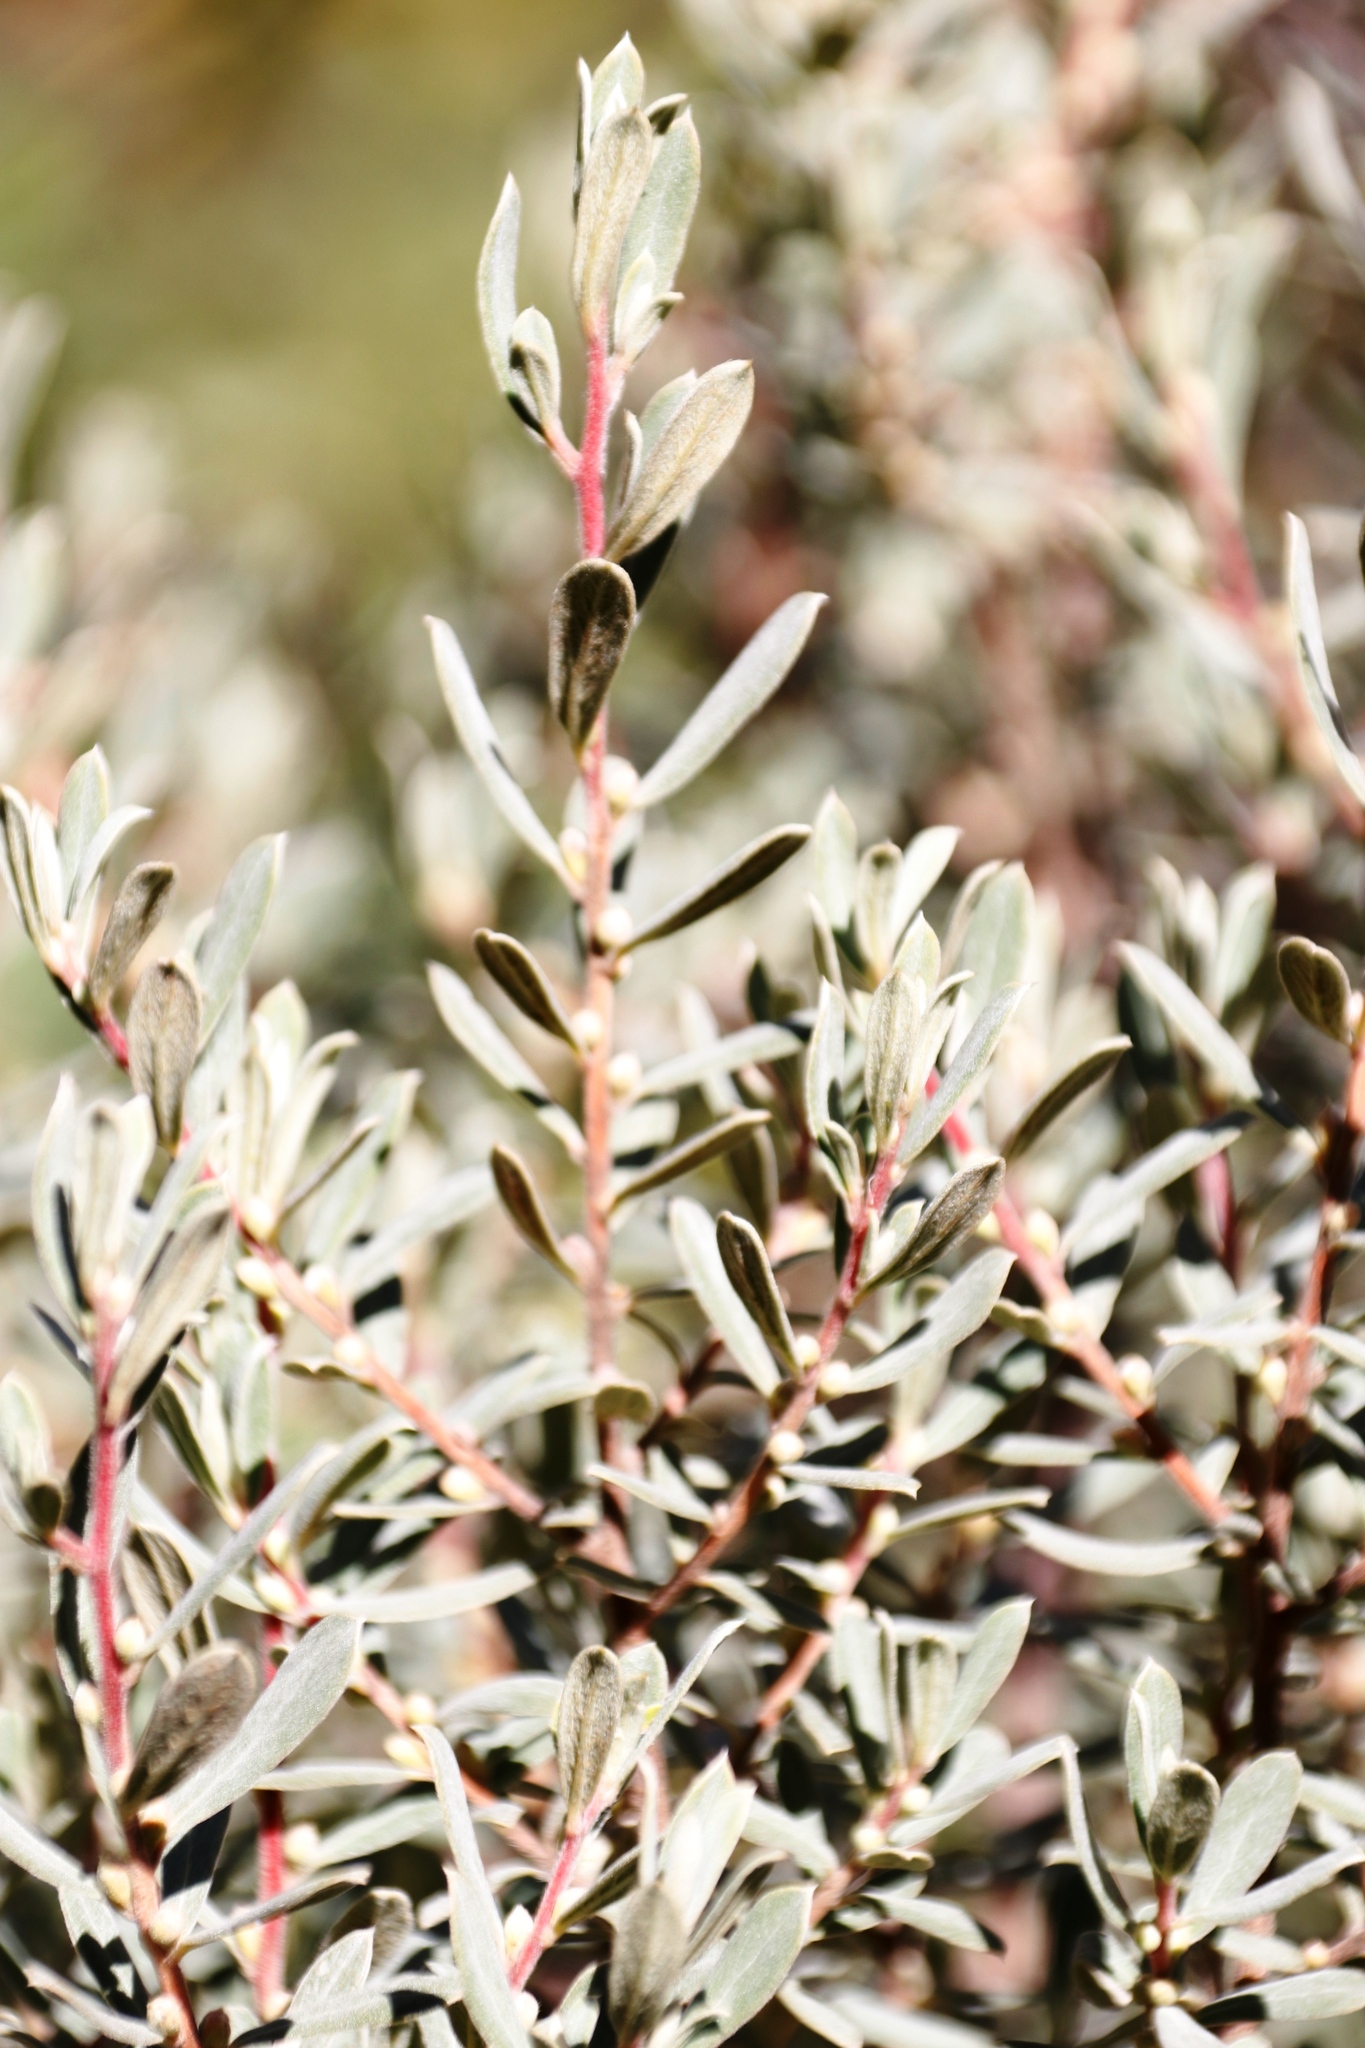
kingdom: Plantae
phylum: Tracheophyta
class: Magnoliopsida
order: Ericales
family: Ebenaceae
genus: Diospyros
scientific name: Diospyros pubescens
